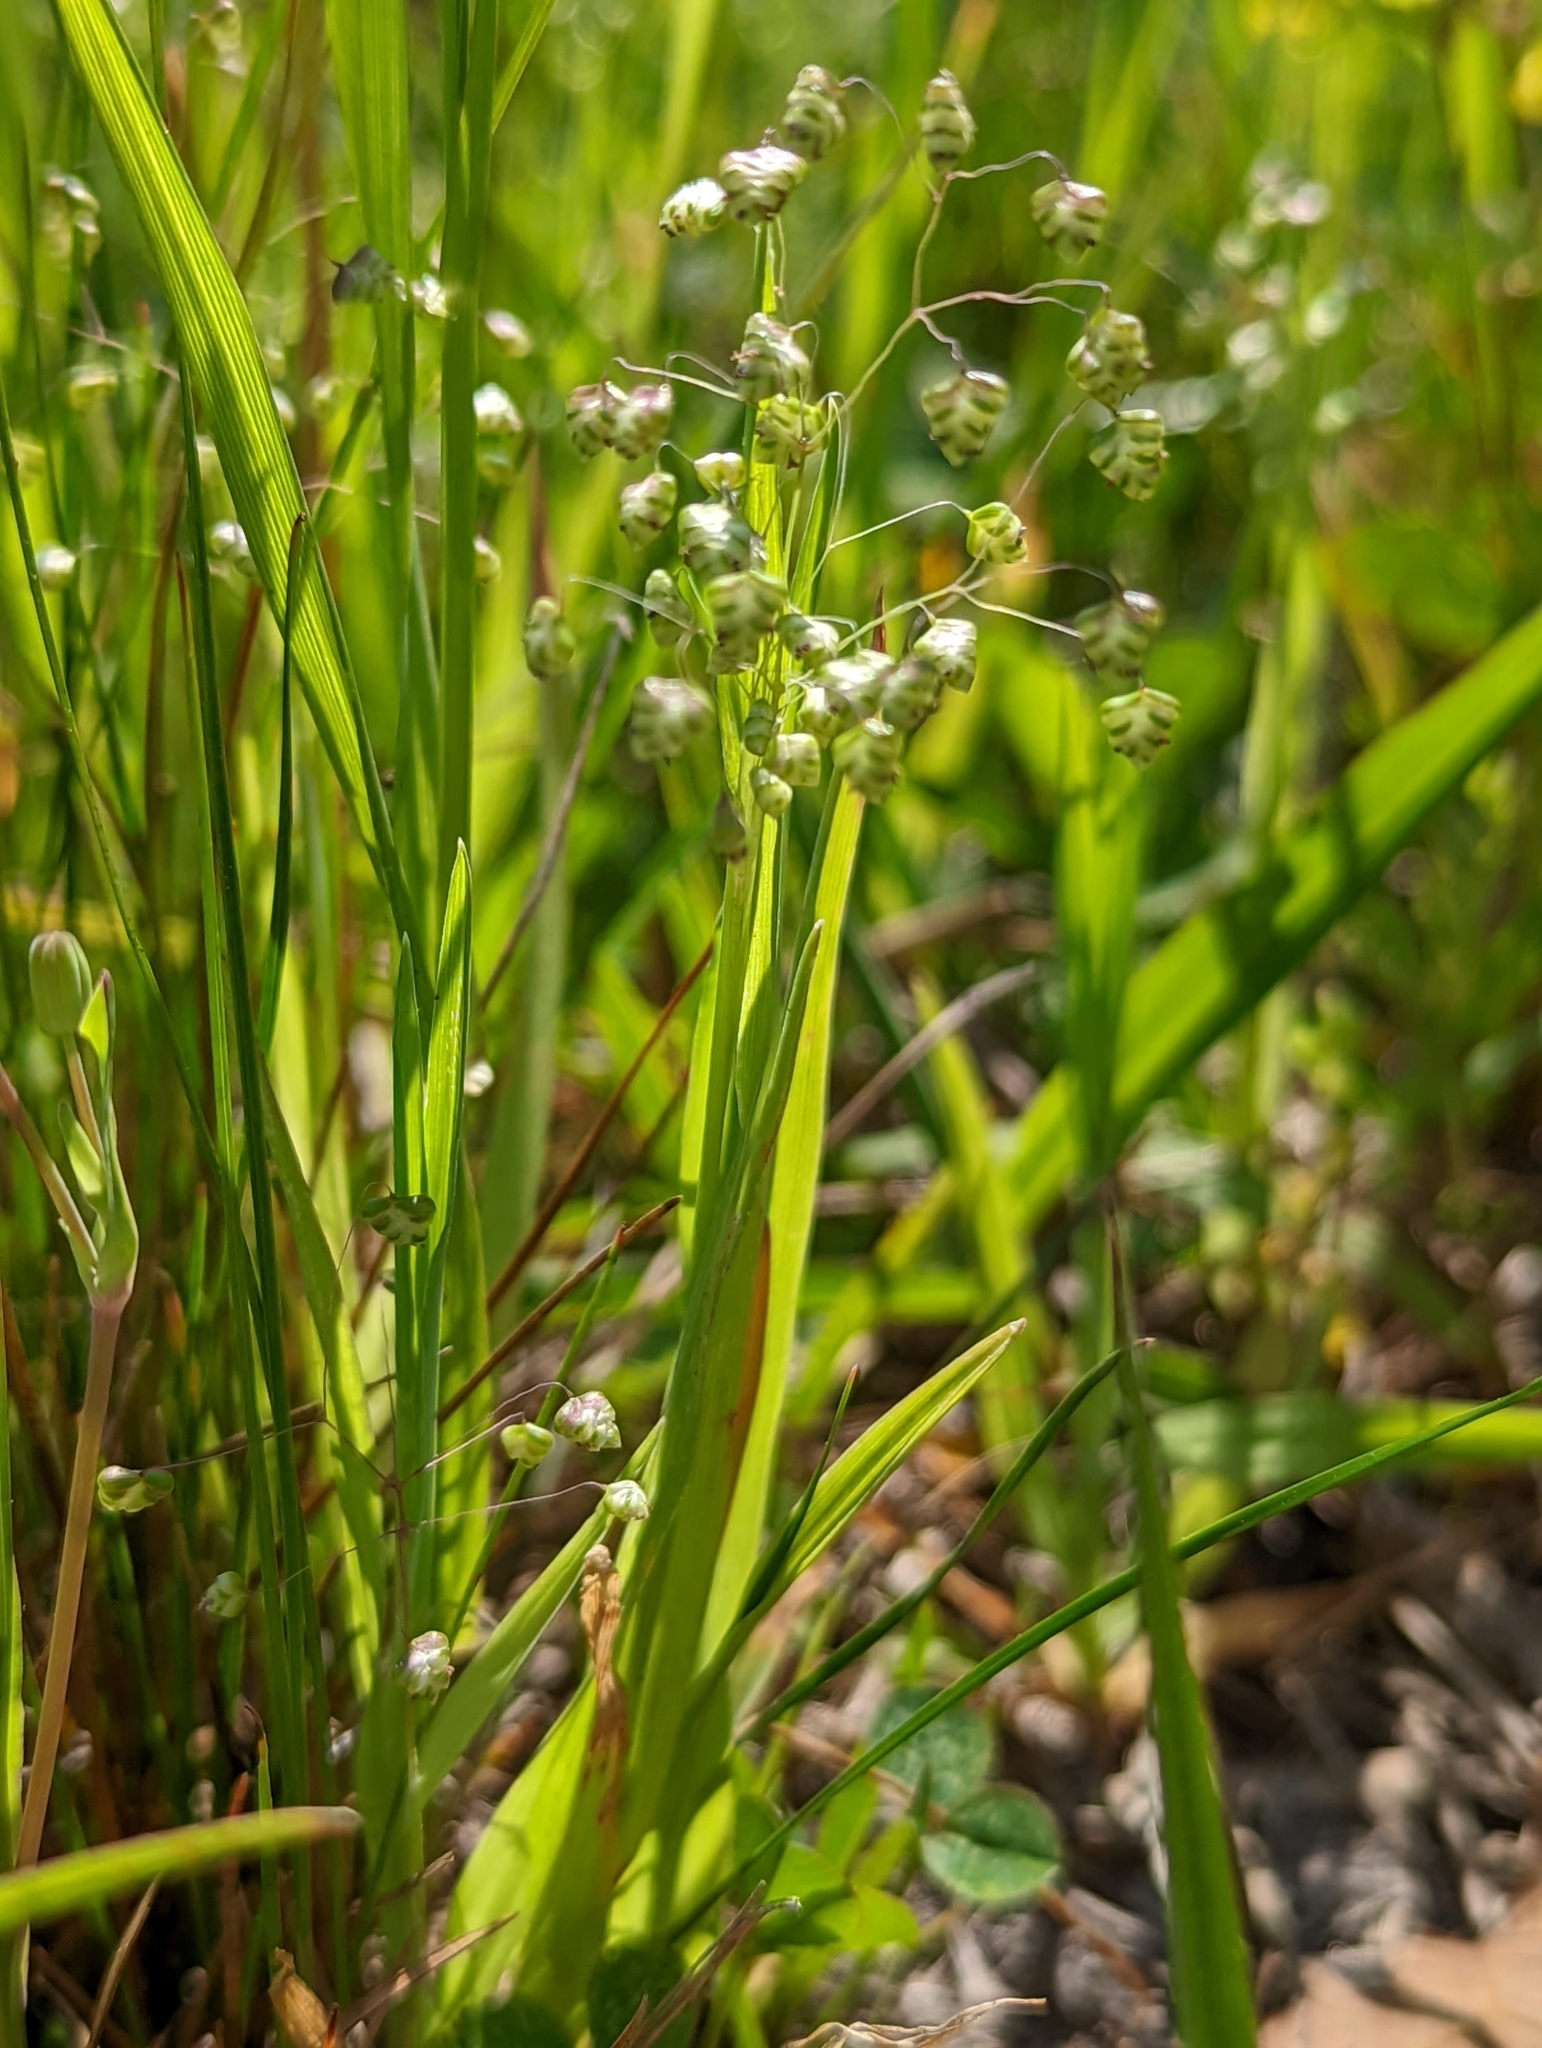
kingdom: Plantae
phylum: Tracheophyta
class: Liliopsida
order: Poales
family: Poaceae
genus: Briza
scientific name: Briza minor
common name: Lesser quaking-grass
